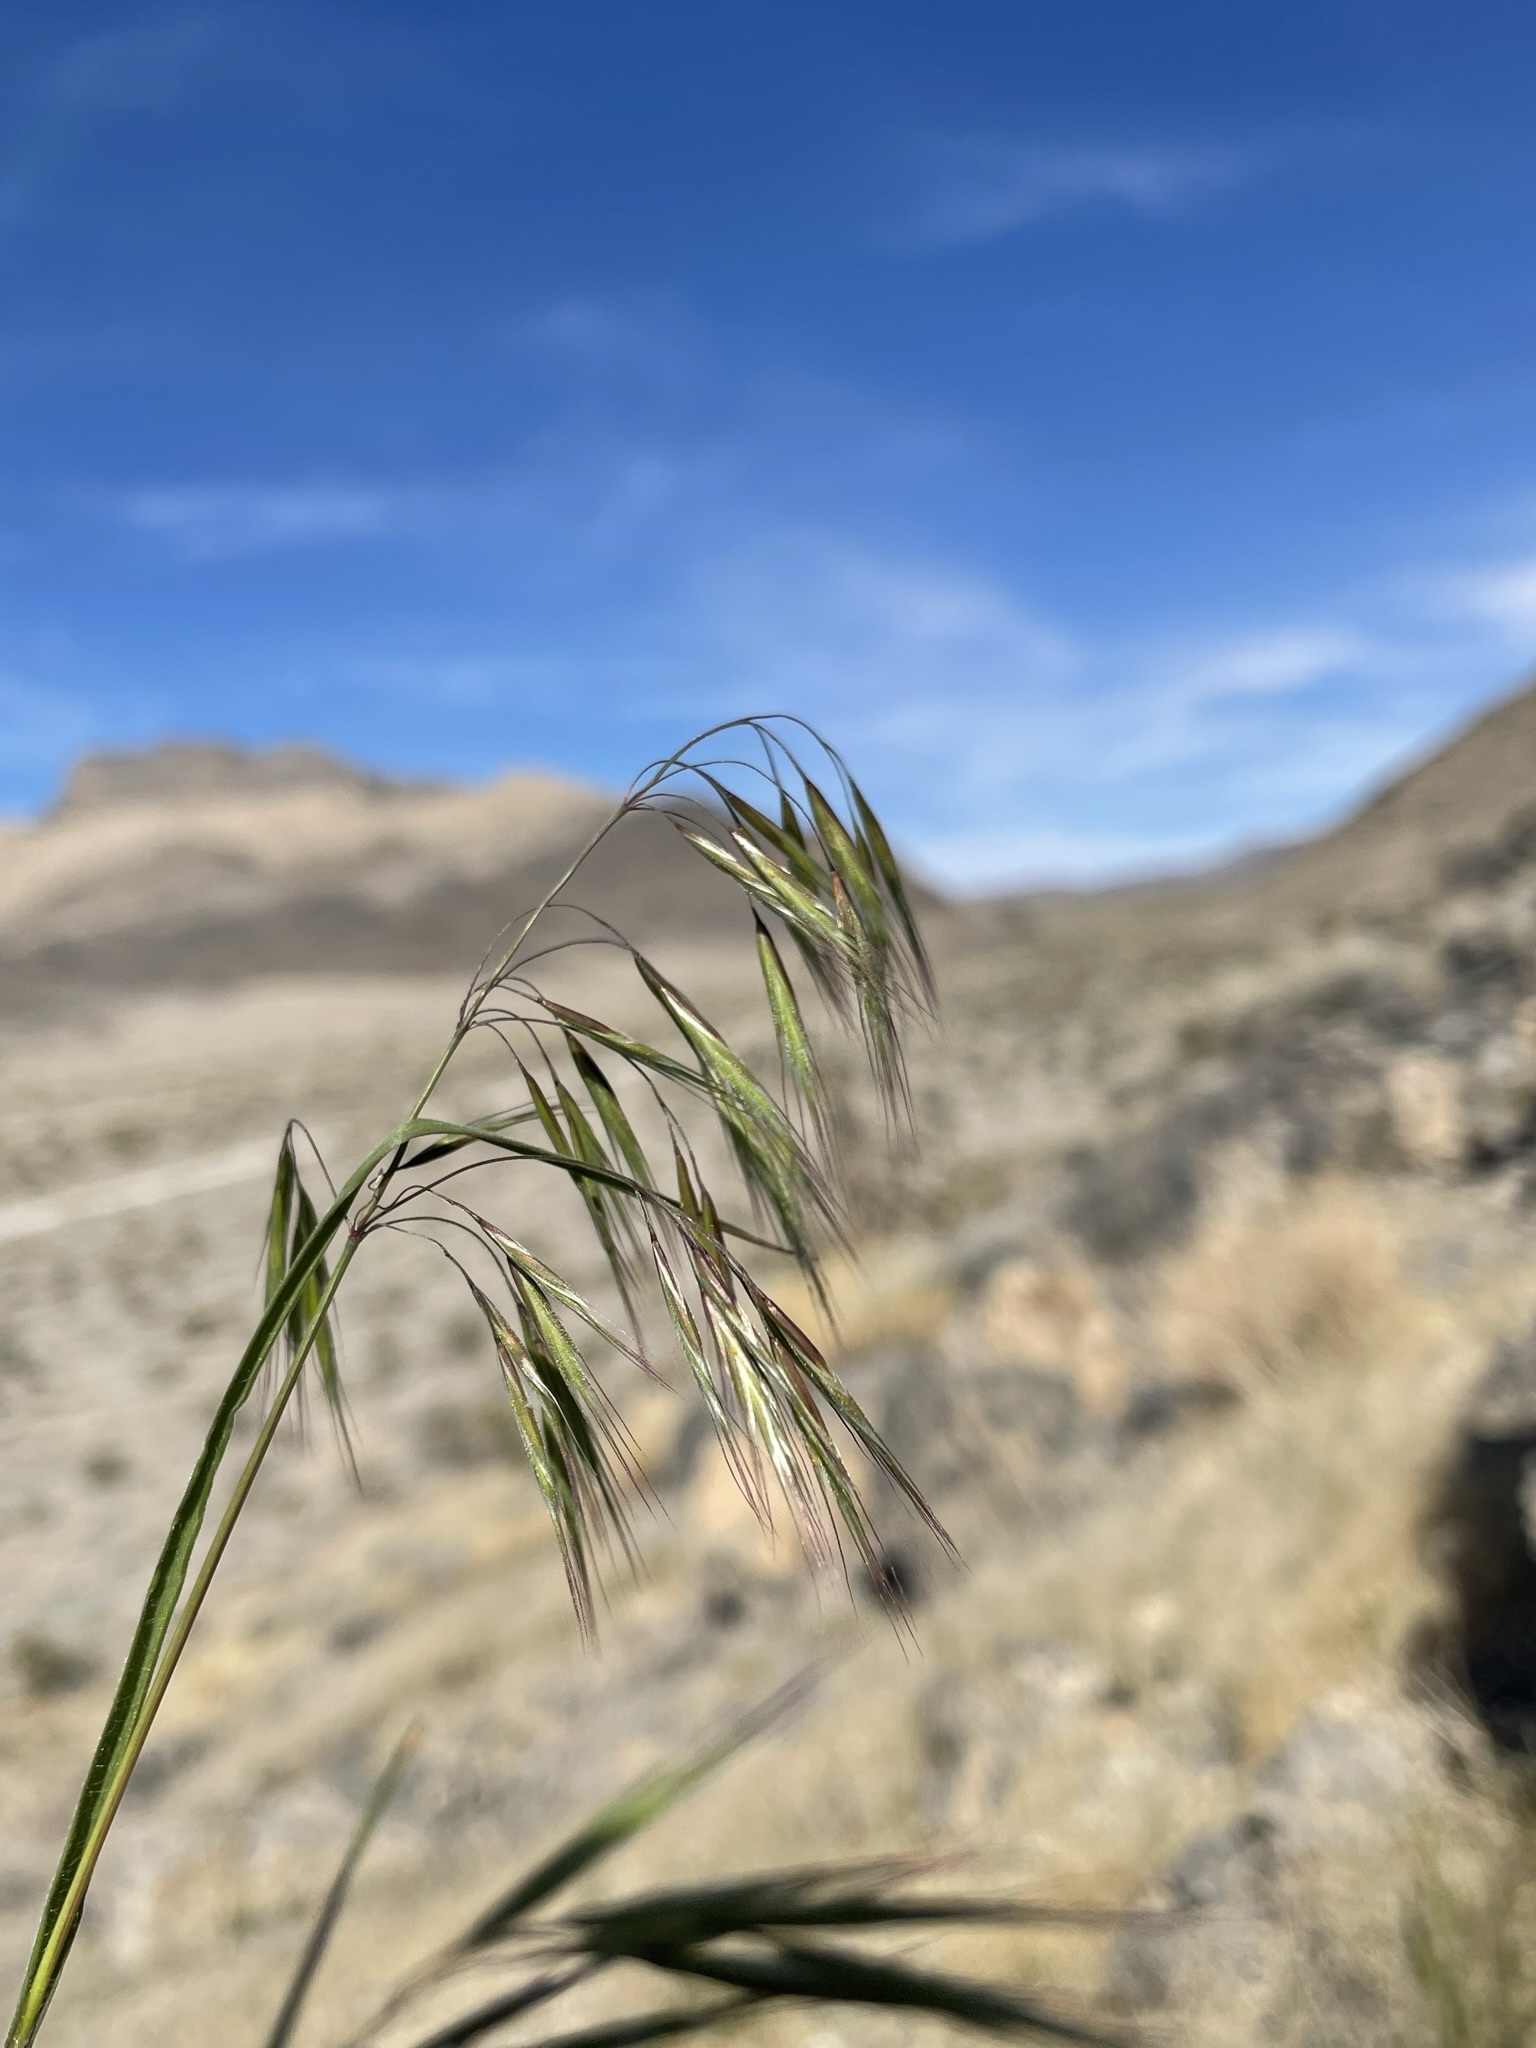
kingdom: Plantae
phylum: Tracheophyta
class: Liliopsida
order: Poales
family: Poaceae
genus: Bromus
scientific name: Bromus tectorum
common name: Cheatgrass
